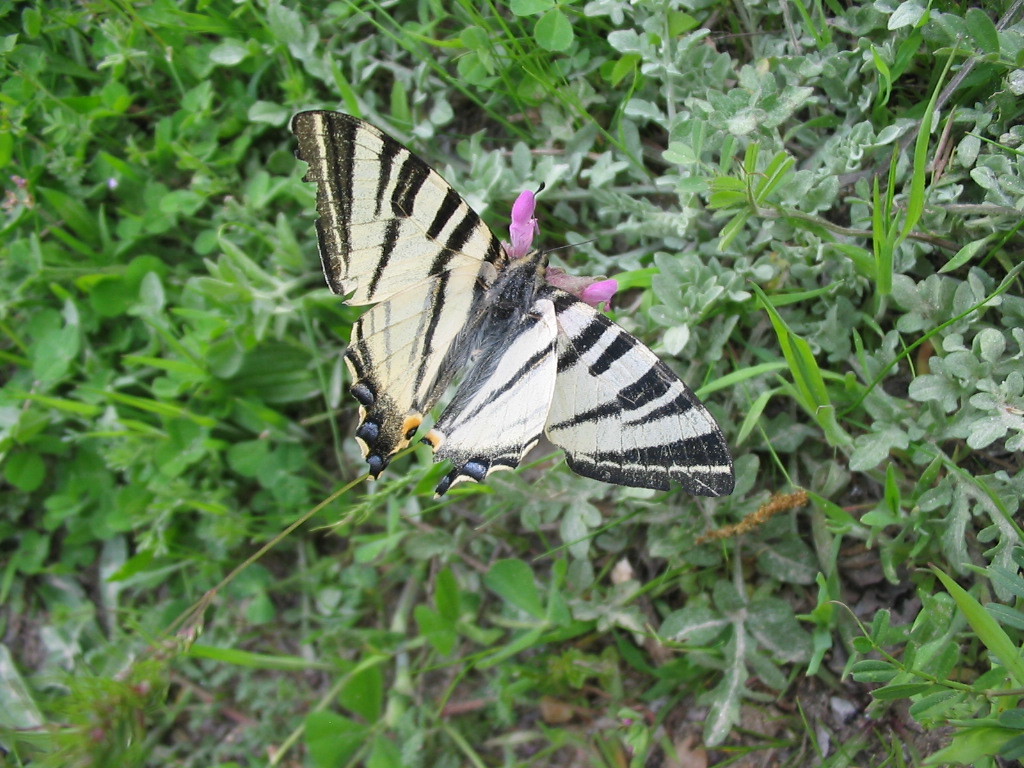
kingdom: Animalia
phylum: Arthropoda
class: Insecta
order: Lepidoptera
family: Papilionidae
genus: Iphiclides
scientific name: Iphiclides podalirius
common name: Scarce swallowtail
